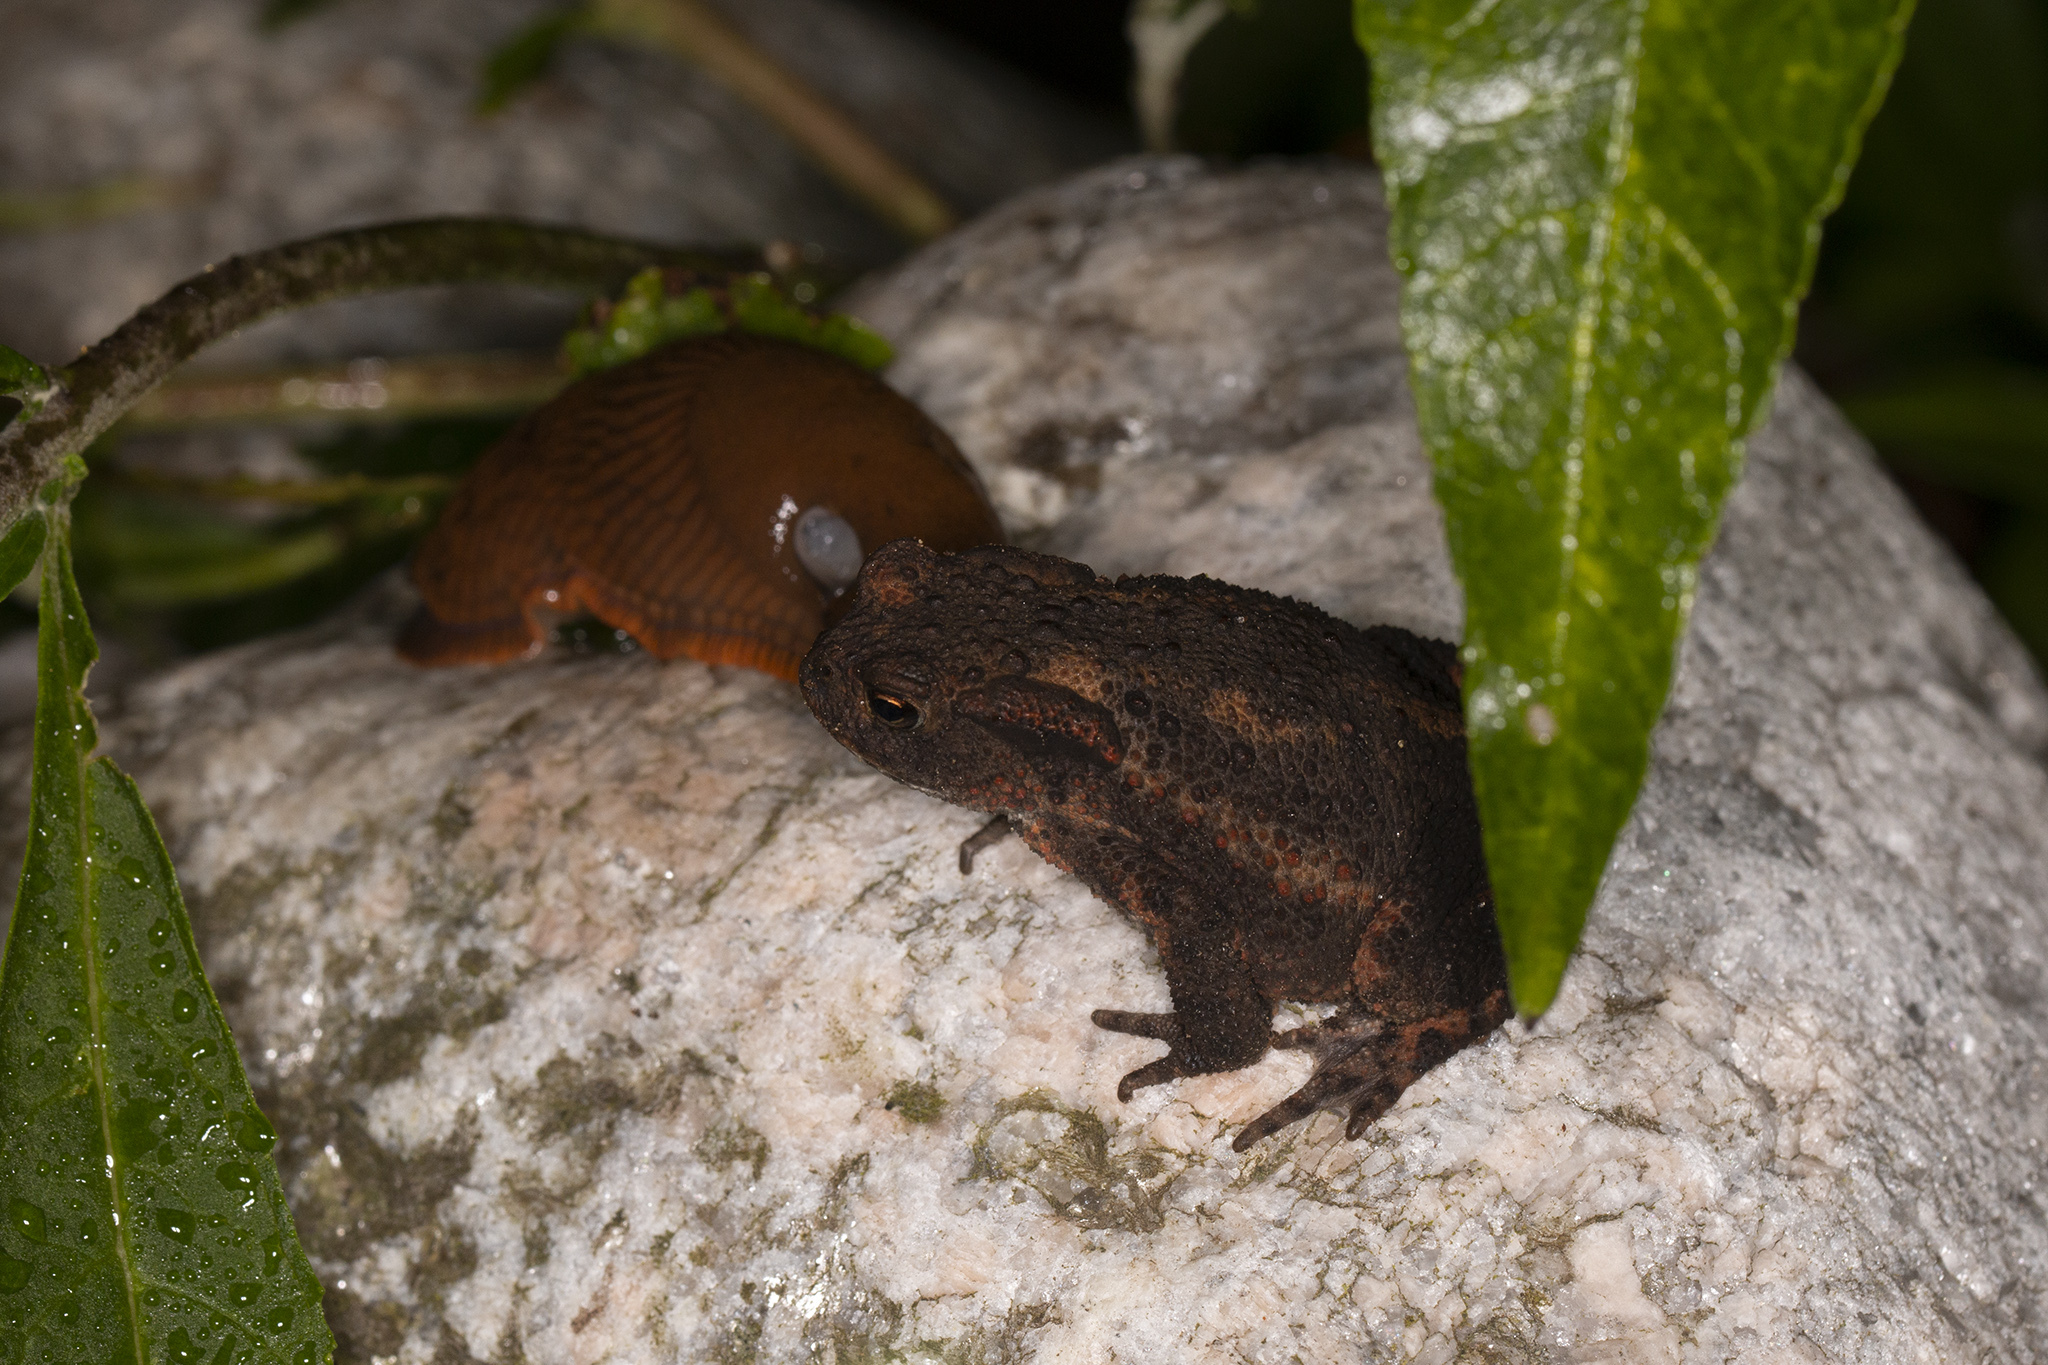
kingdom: Animalia
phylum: Chordata
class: Amphibia
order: Anura
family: Bufonidae
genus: Bufo
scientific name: Bufo bufo
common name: Common toad
